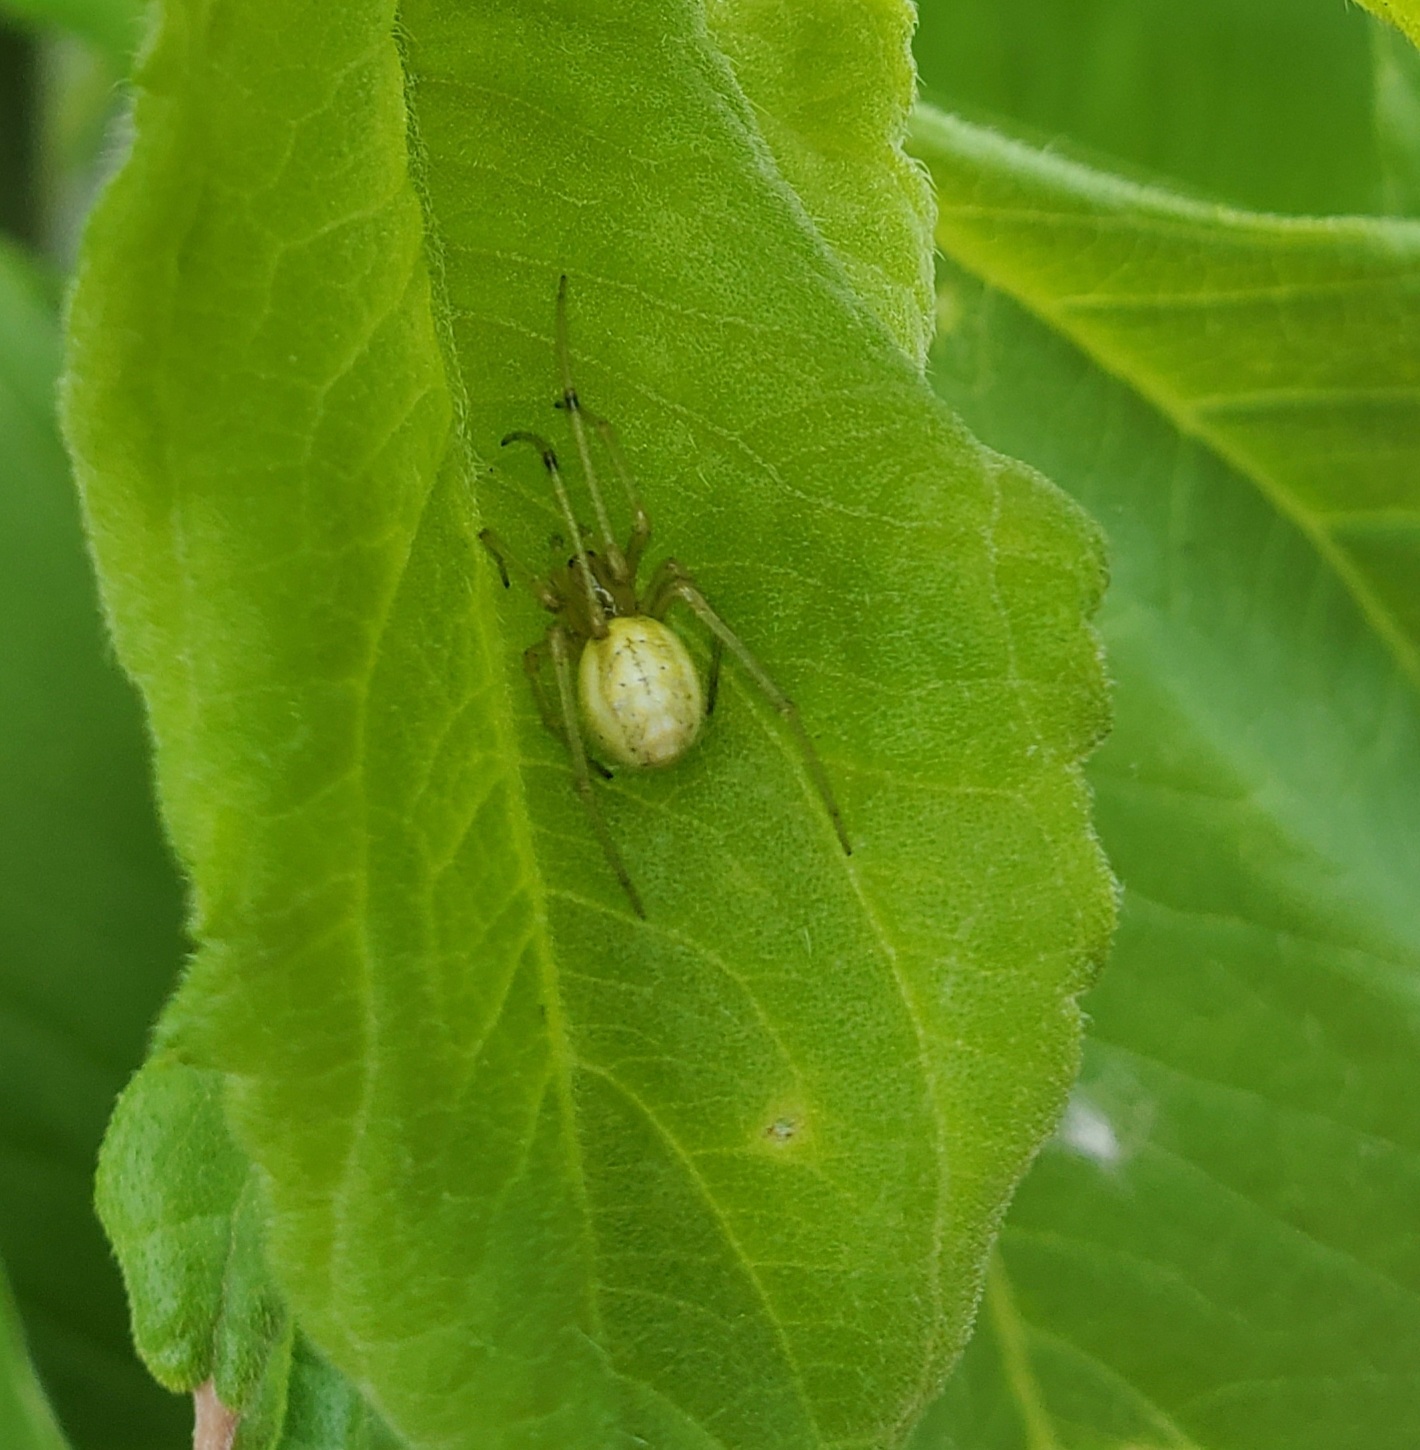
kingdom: Animalia
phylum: Arthropoda
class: Arachnida
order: Araneae
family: Theridiidae
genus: Enoplognatha
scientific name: Enoplognatha ovata
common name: Common candy-striped spider
